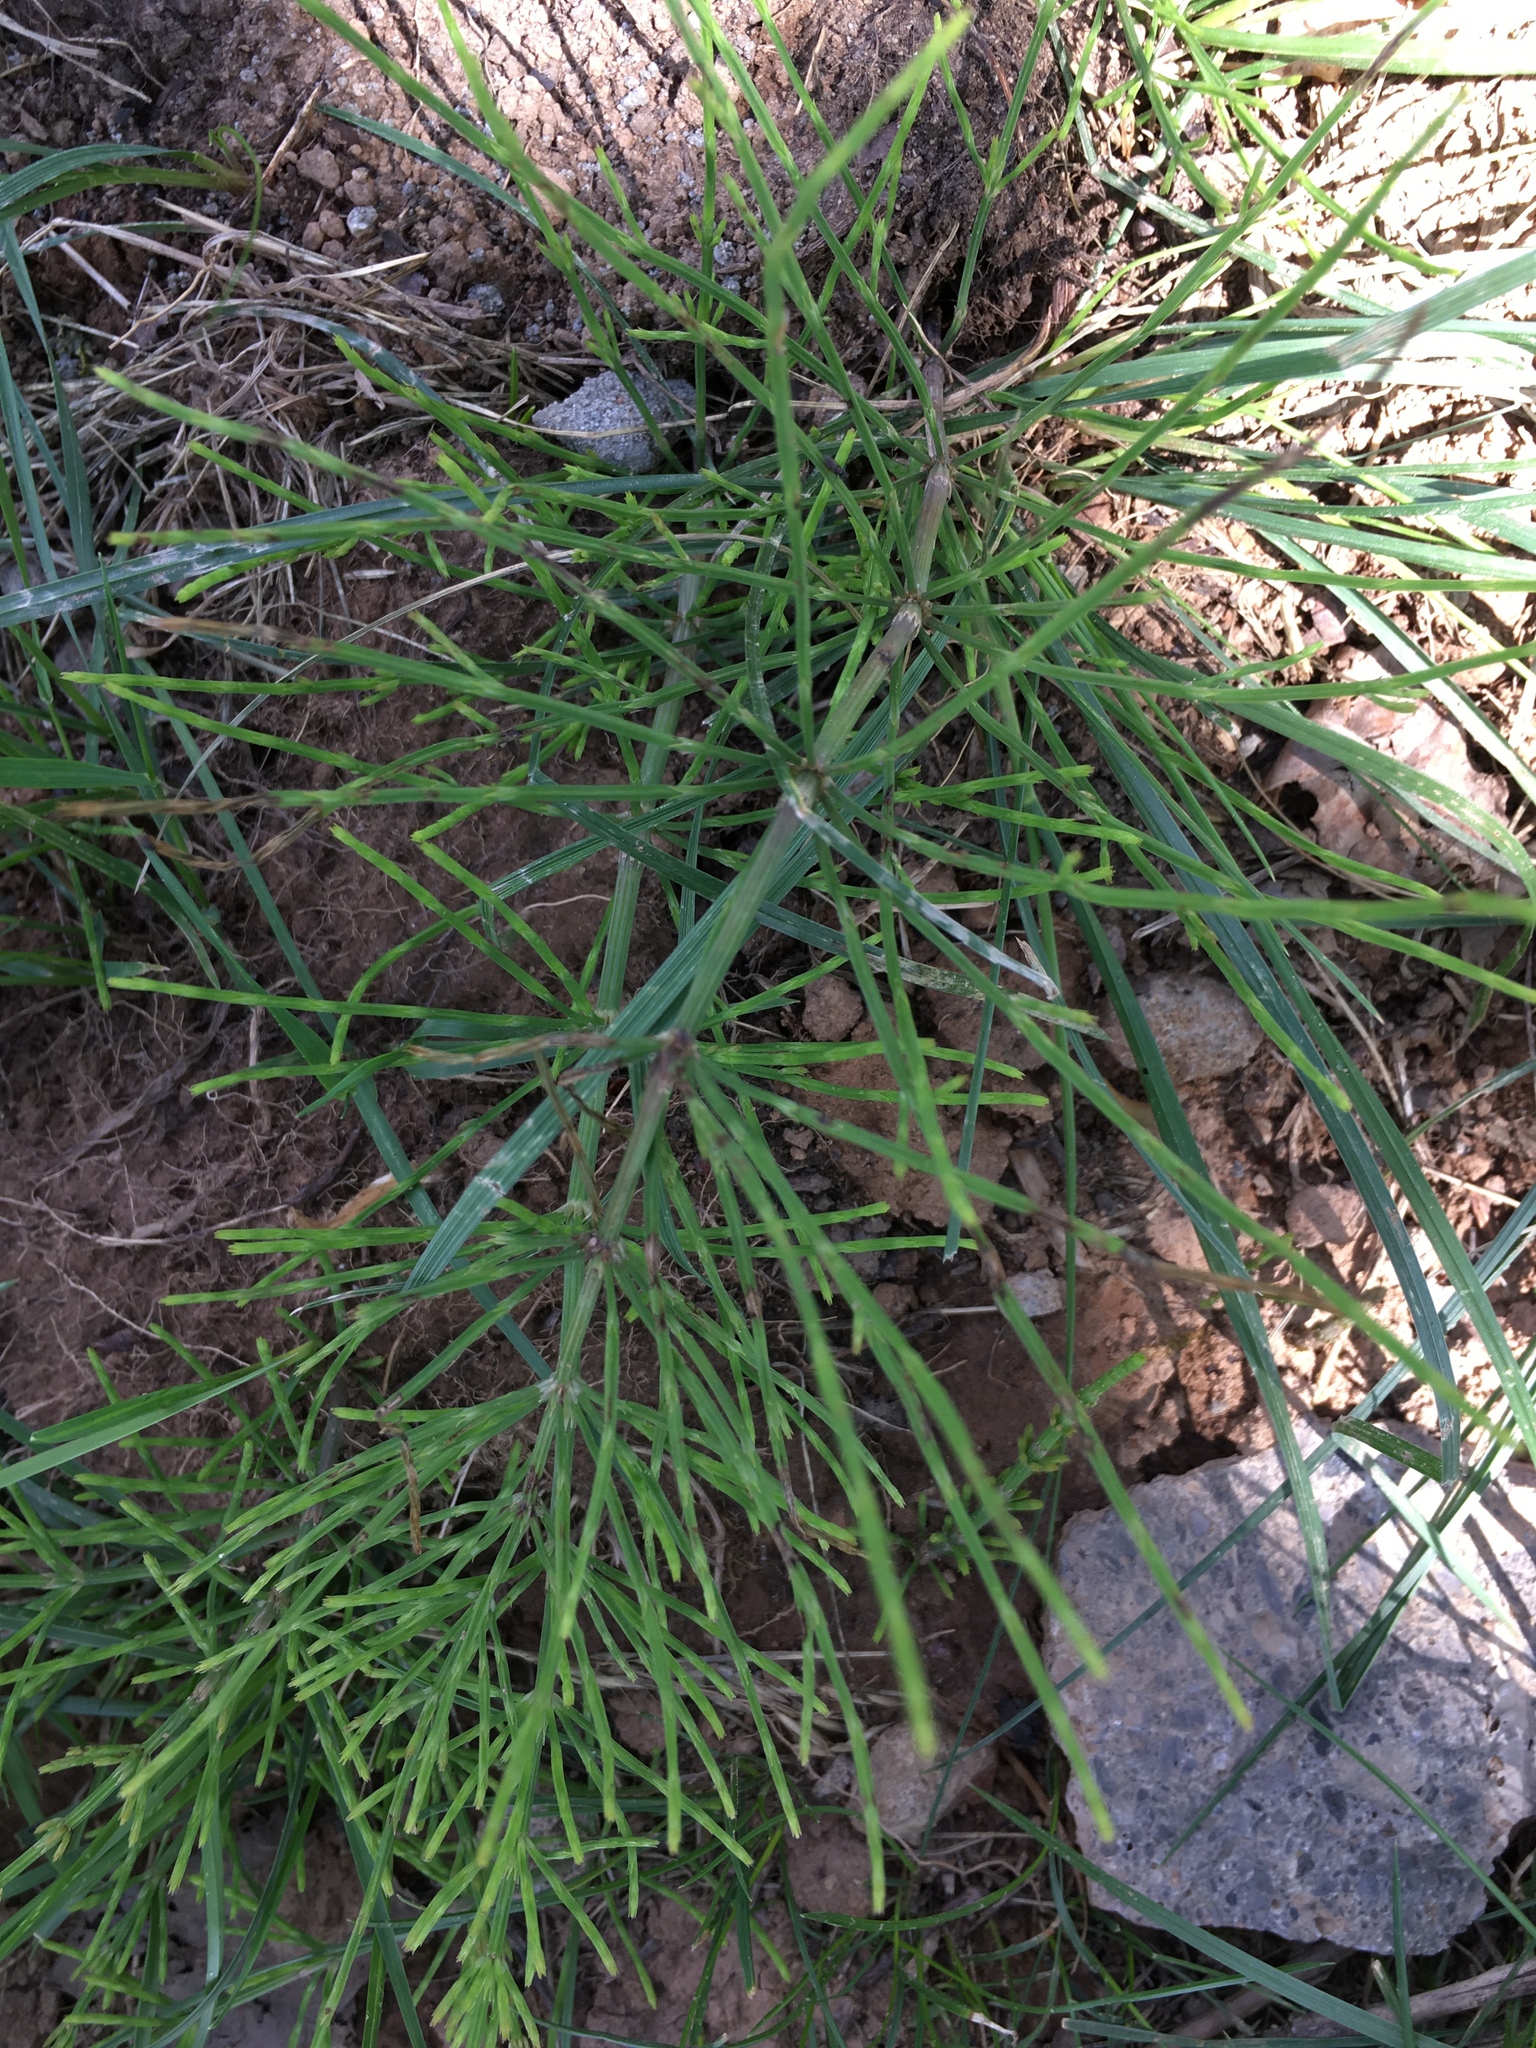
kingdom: Plantae
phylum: Tracheophyta
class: Polypodiopsida
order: Equisetales
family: Equisetaceae
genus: Equisetum
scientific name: Equisetum arvense
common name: Field horsetail
